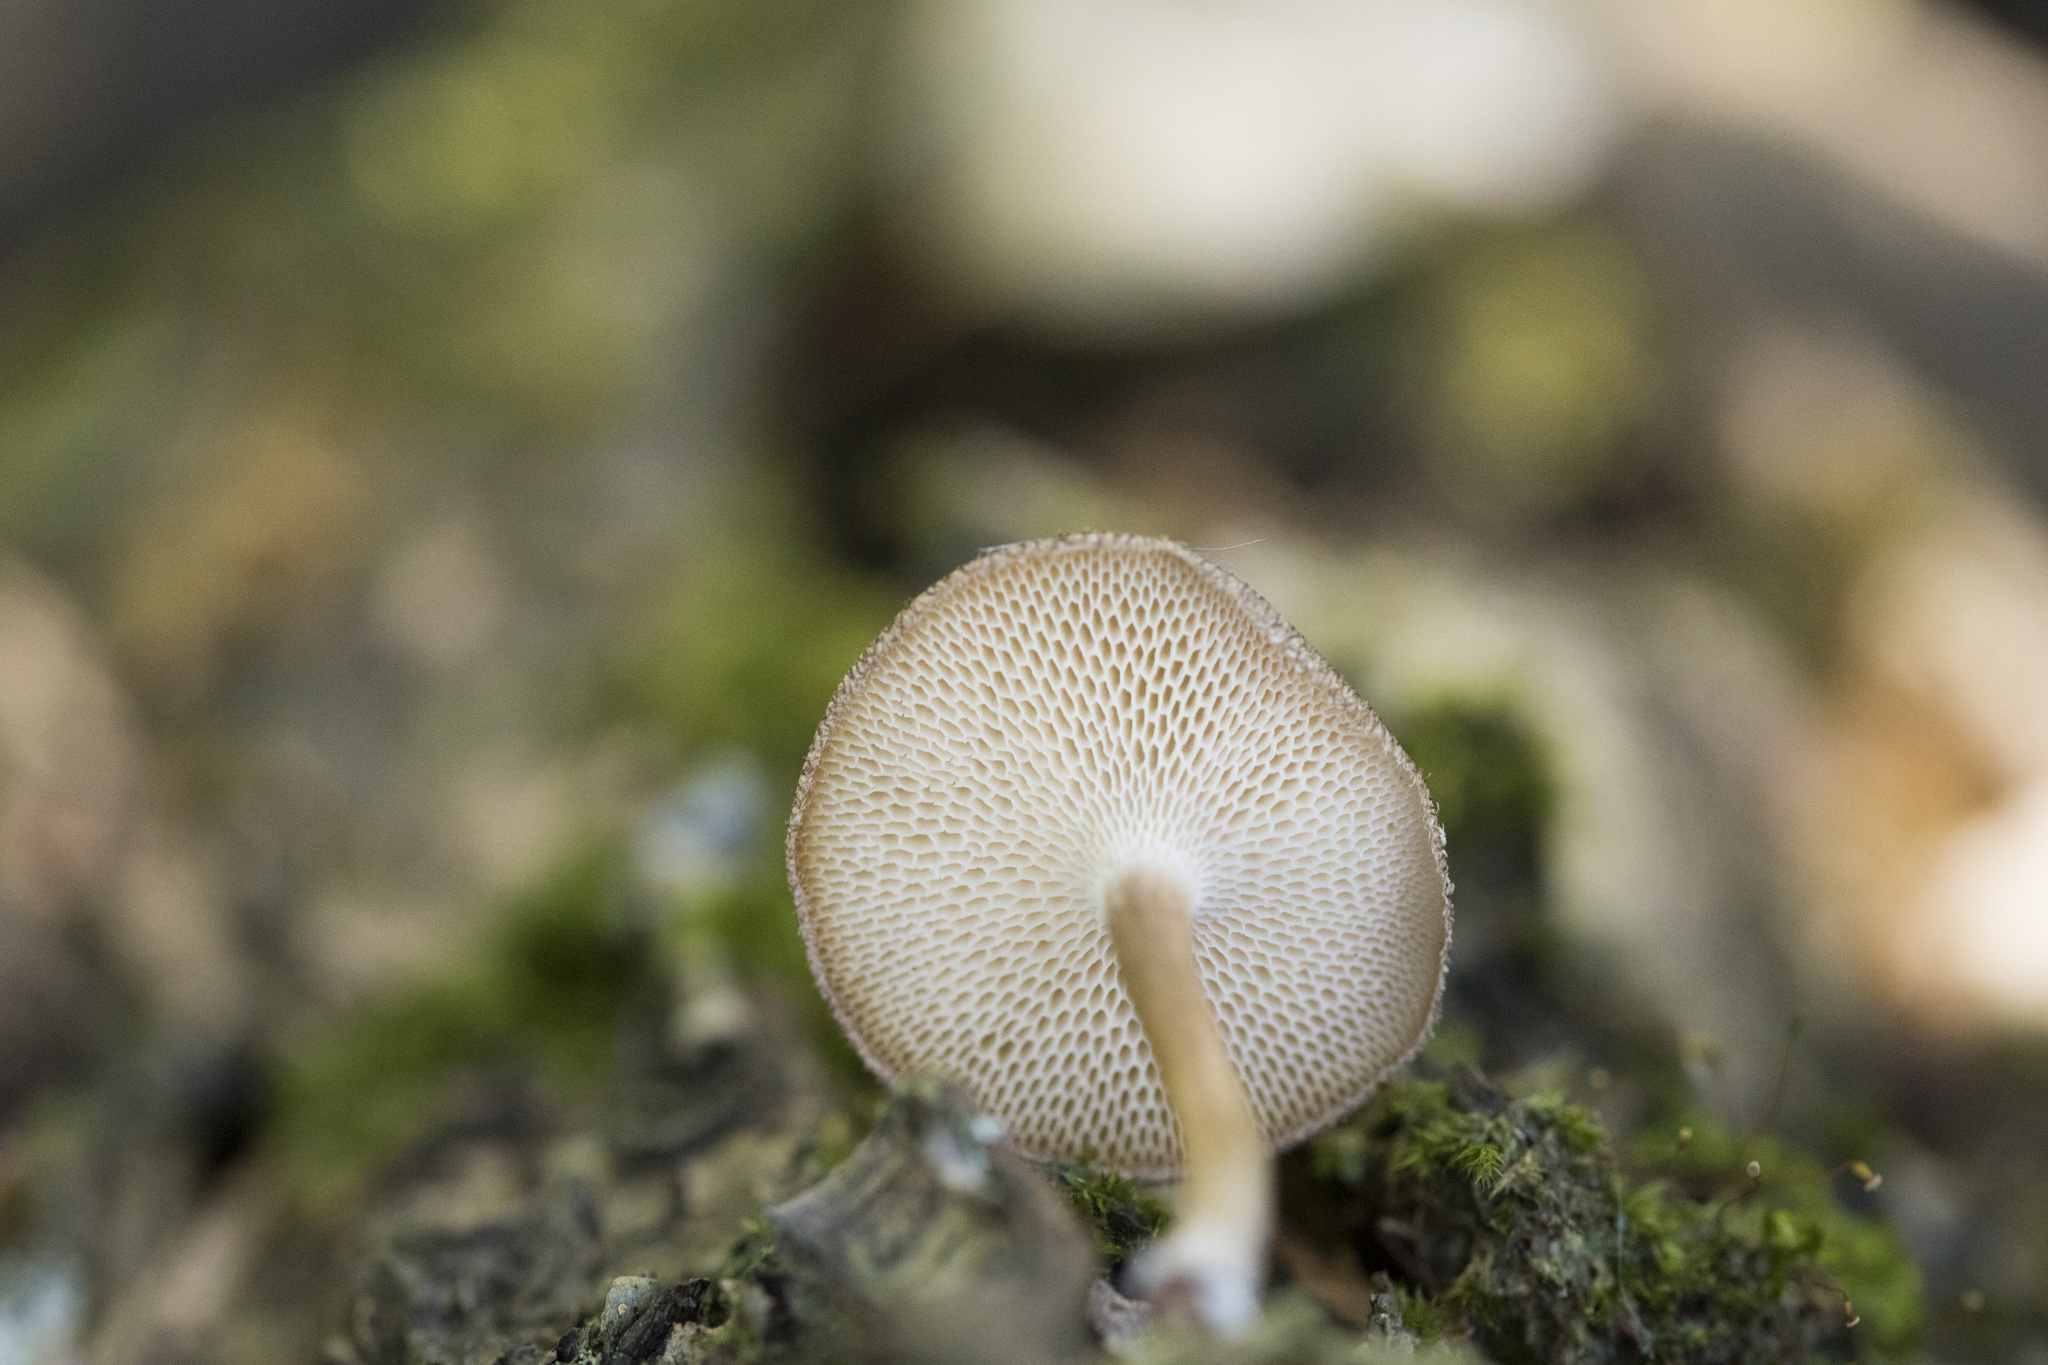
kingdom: Fungi
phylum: Basidiomycota
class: Agaricomycetes
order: Polyporales
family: Polyporaceae
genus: Lentinus
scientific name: Lentinus arcularius
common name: Spring polypore
